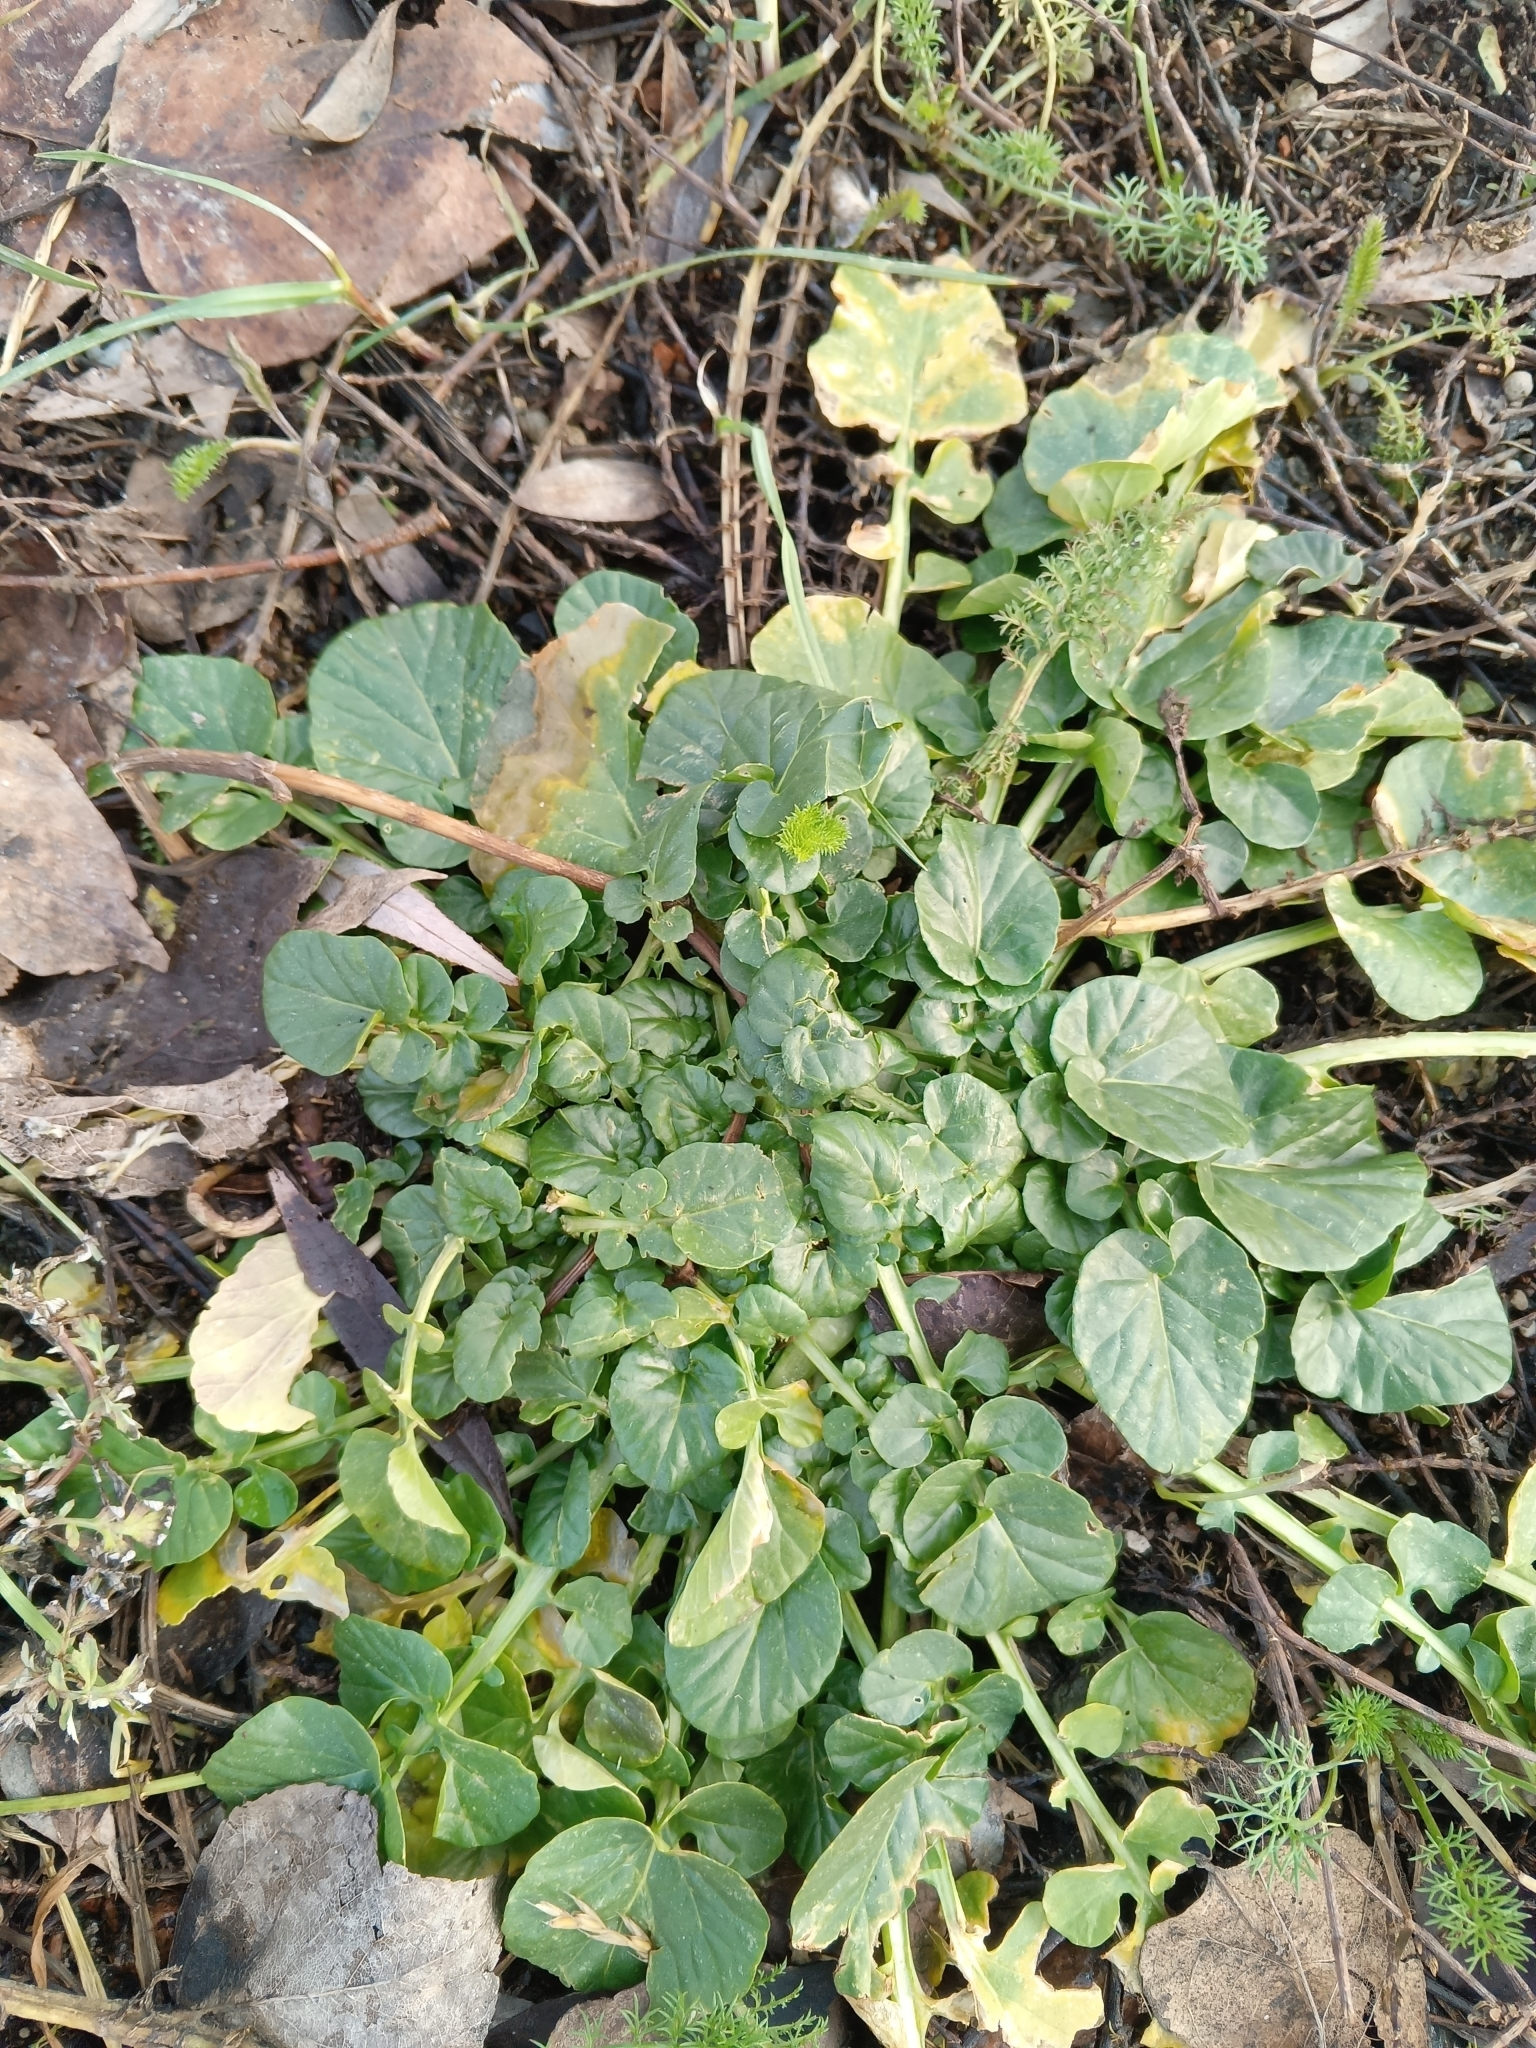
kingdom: Plantae
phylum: Tracheophyta
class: Magnoliopsida
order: Brassicales
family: Brassicaceae
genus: Barbarea
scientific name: Barbarea vulgaris
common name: Cressy-greens
